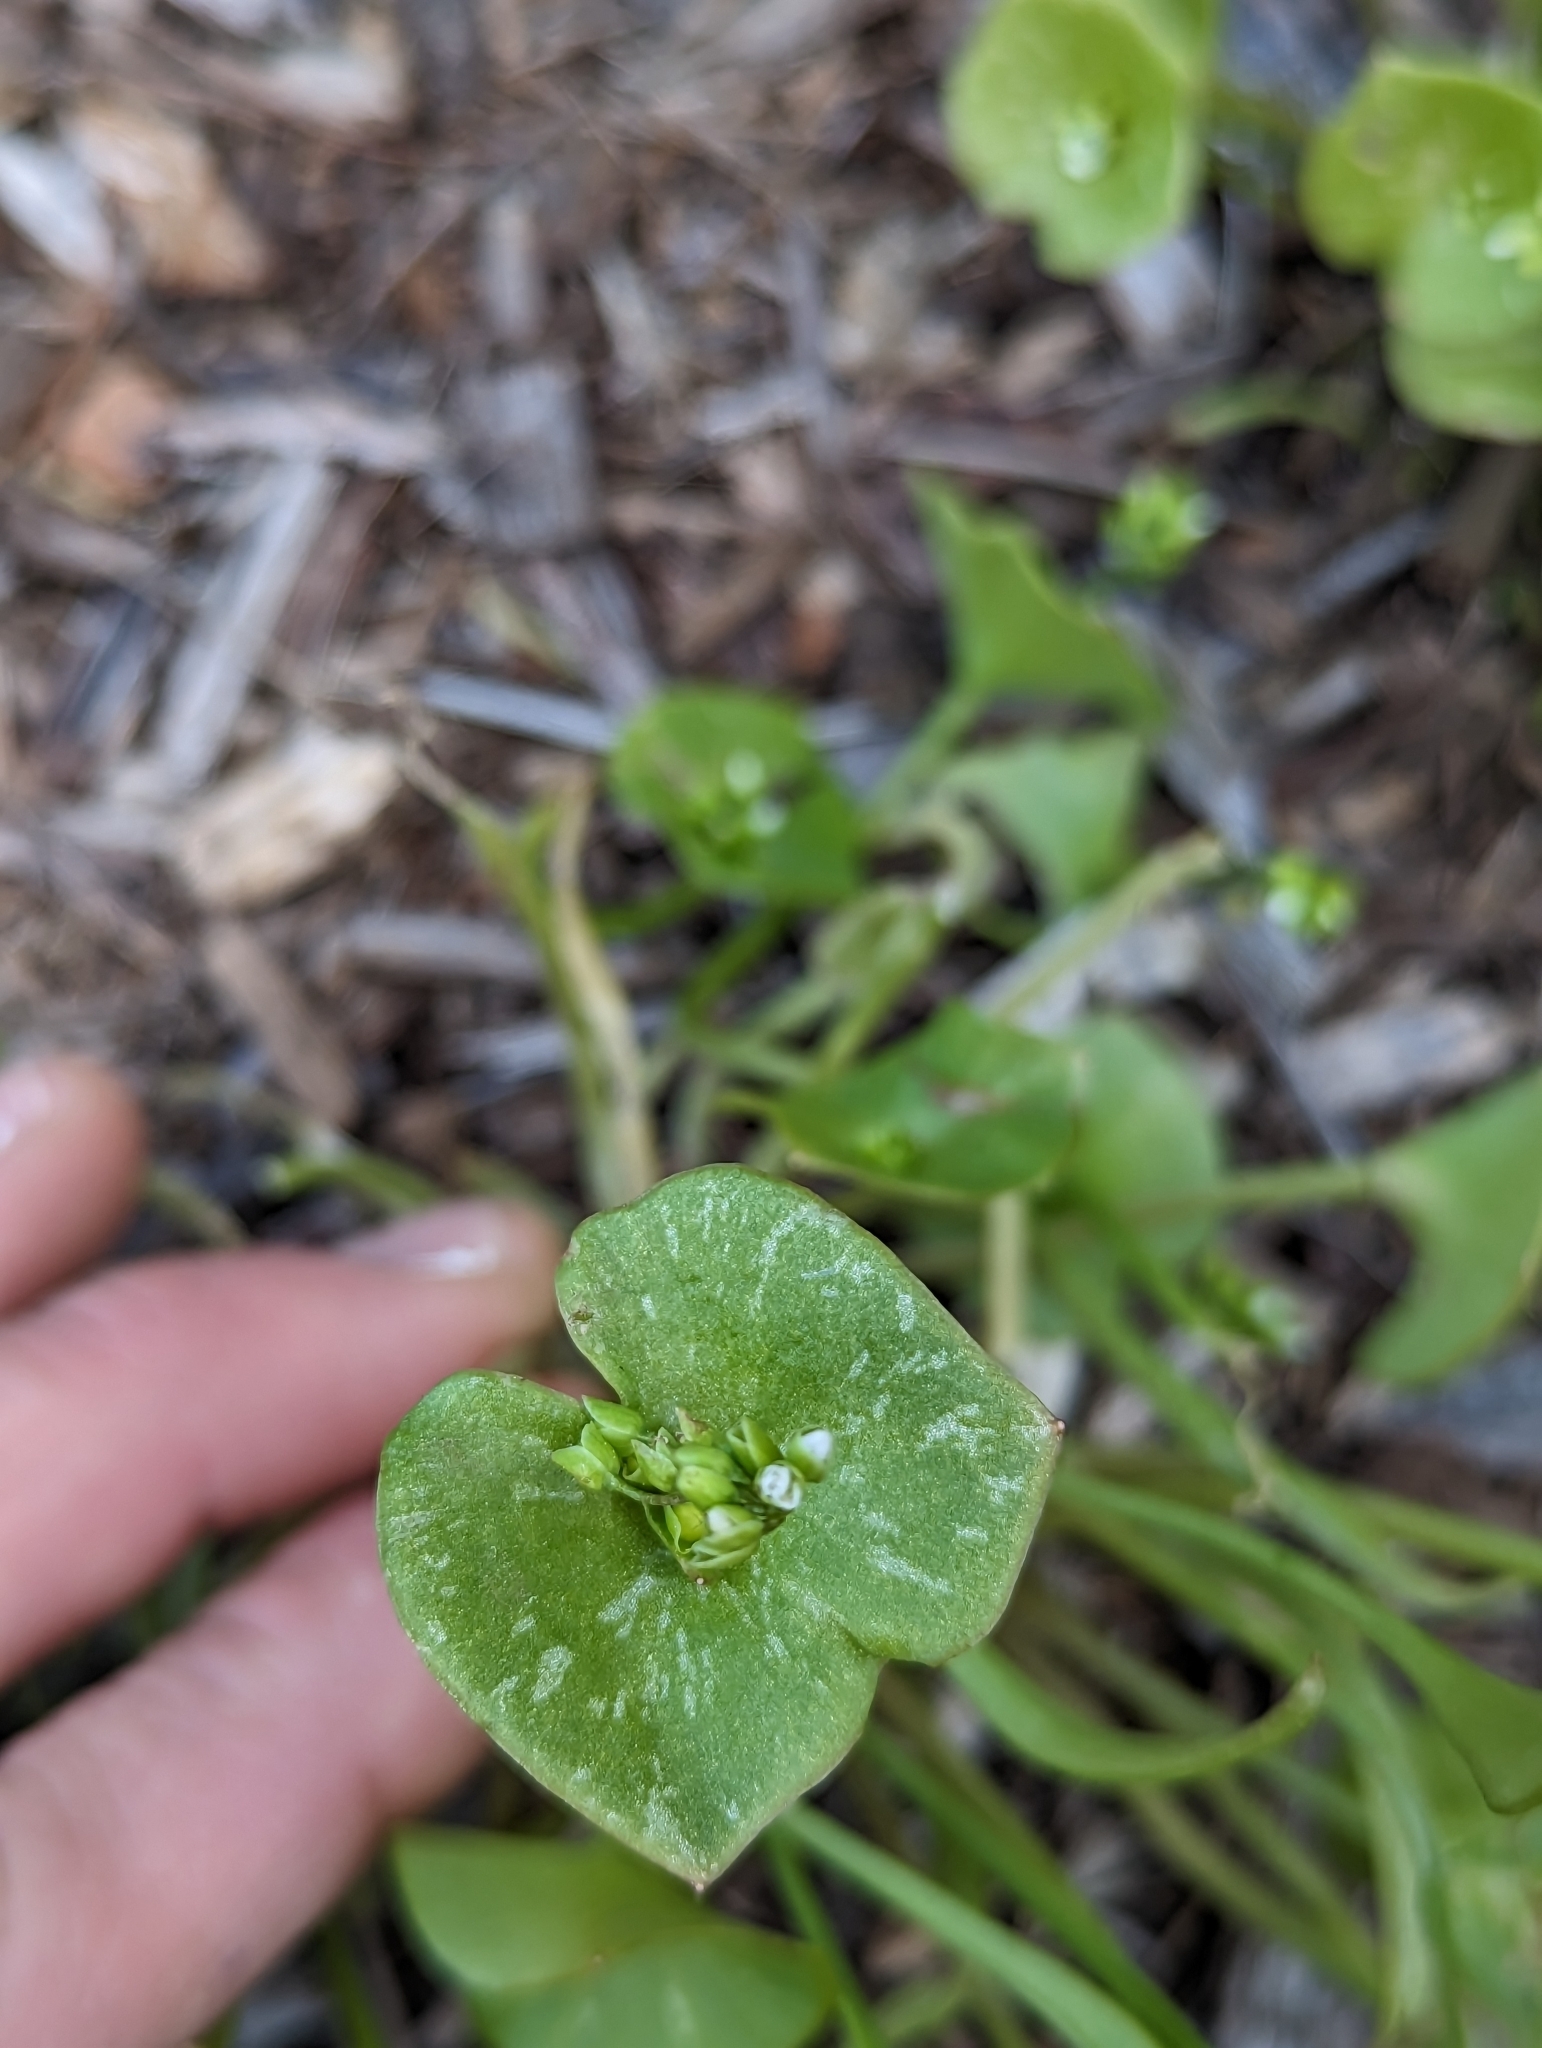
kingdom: Plantae
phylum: Tracheophyta
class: Magnoliopsida
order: Caryophyllales
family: Montiaceae
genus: Claytonia
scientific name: Claytonia parviflora
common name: Indian-lettuce
